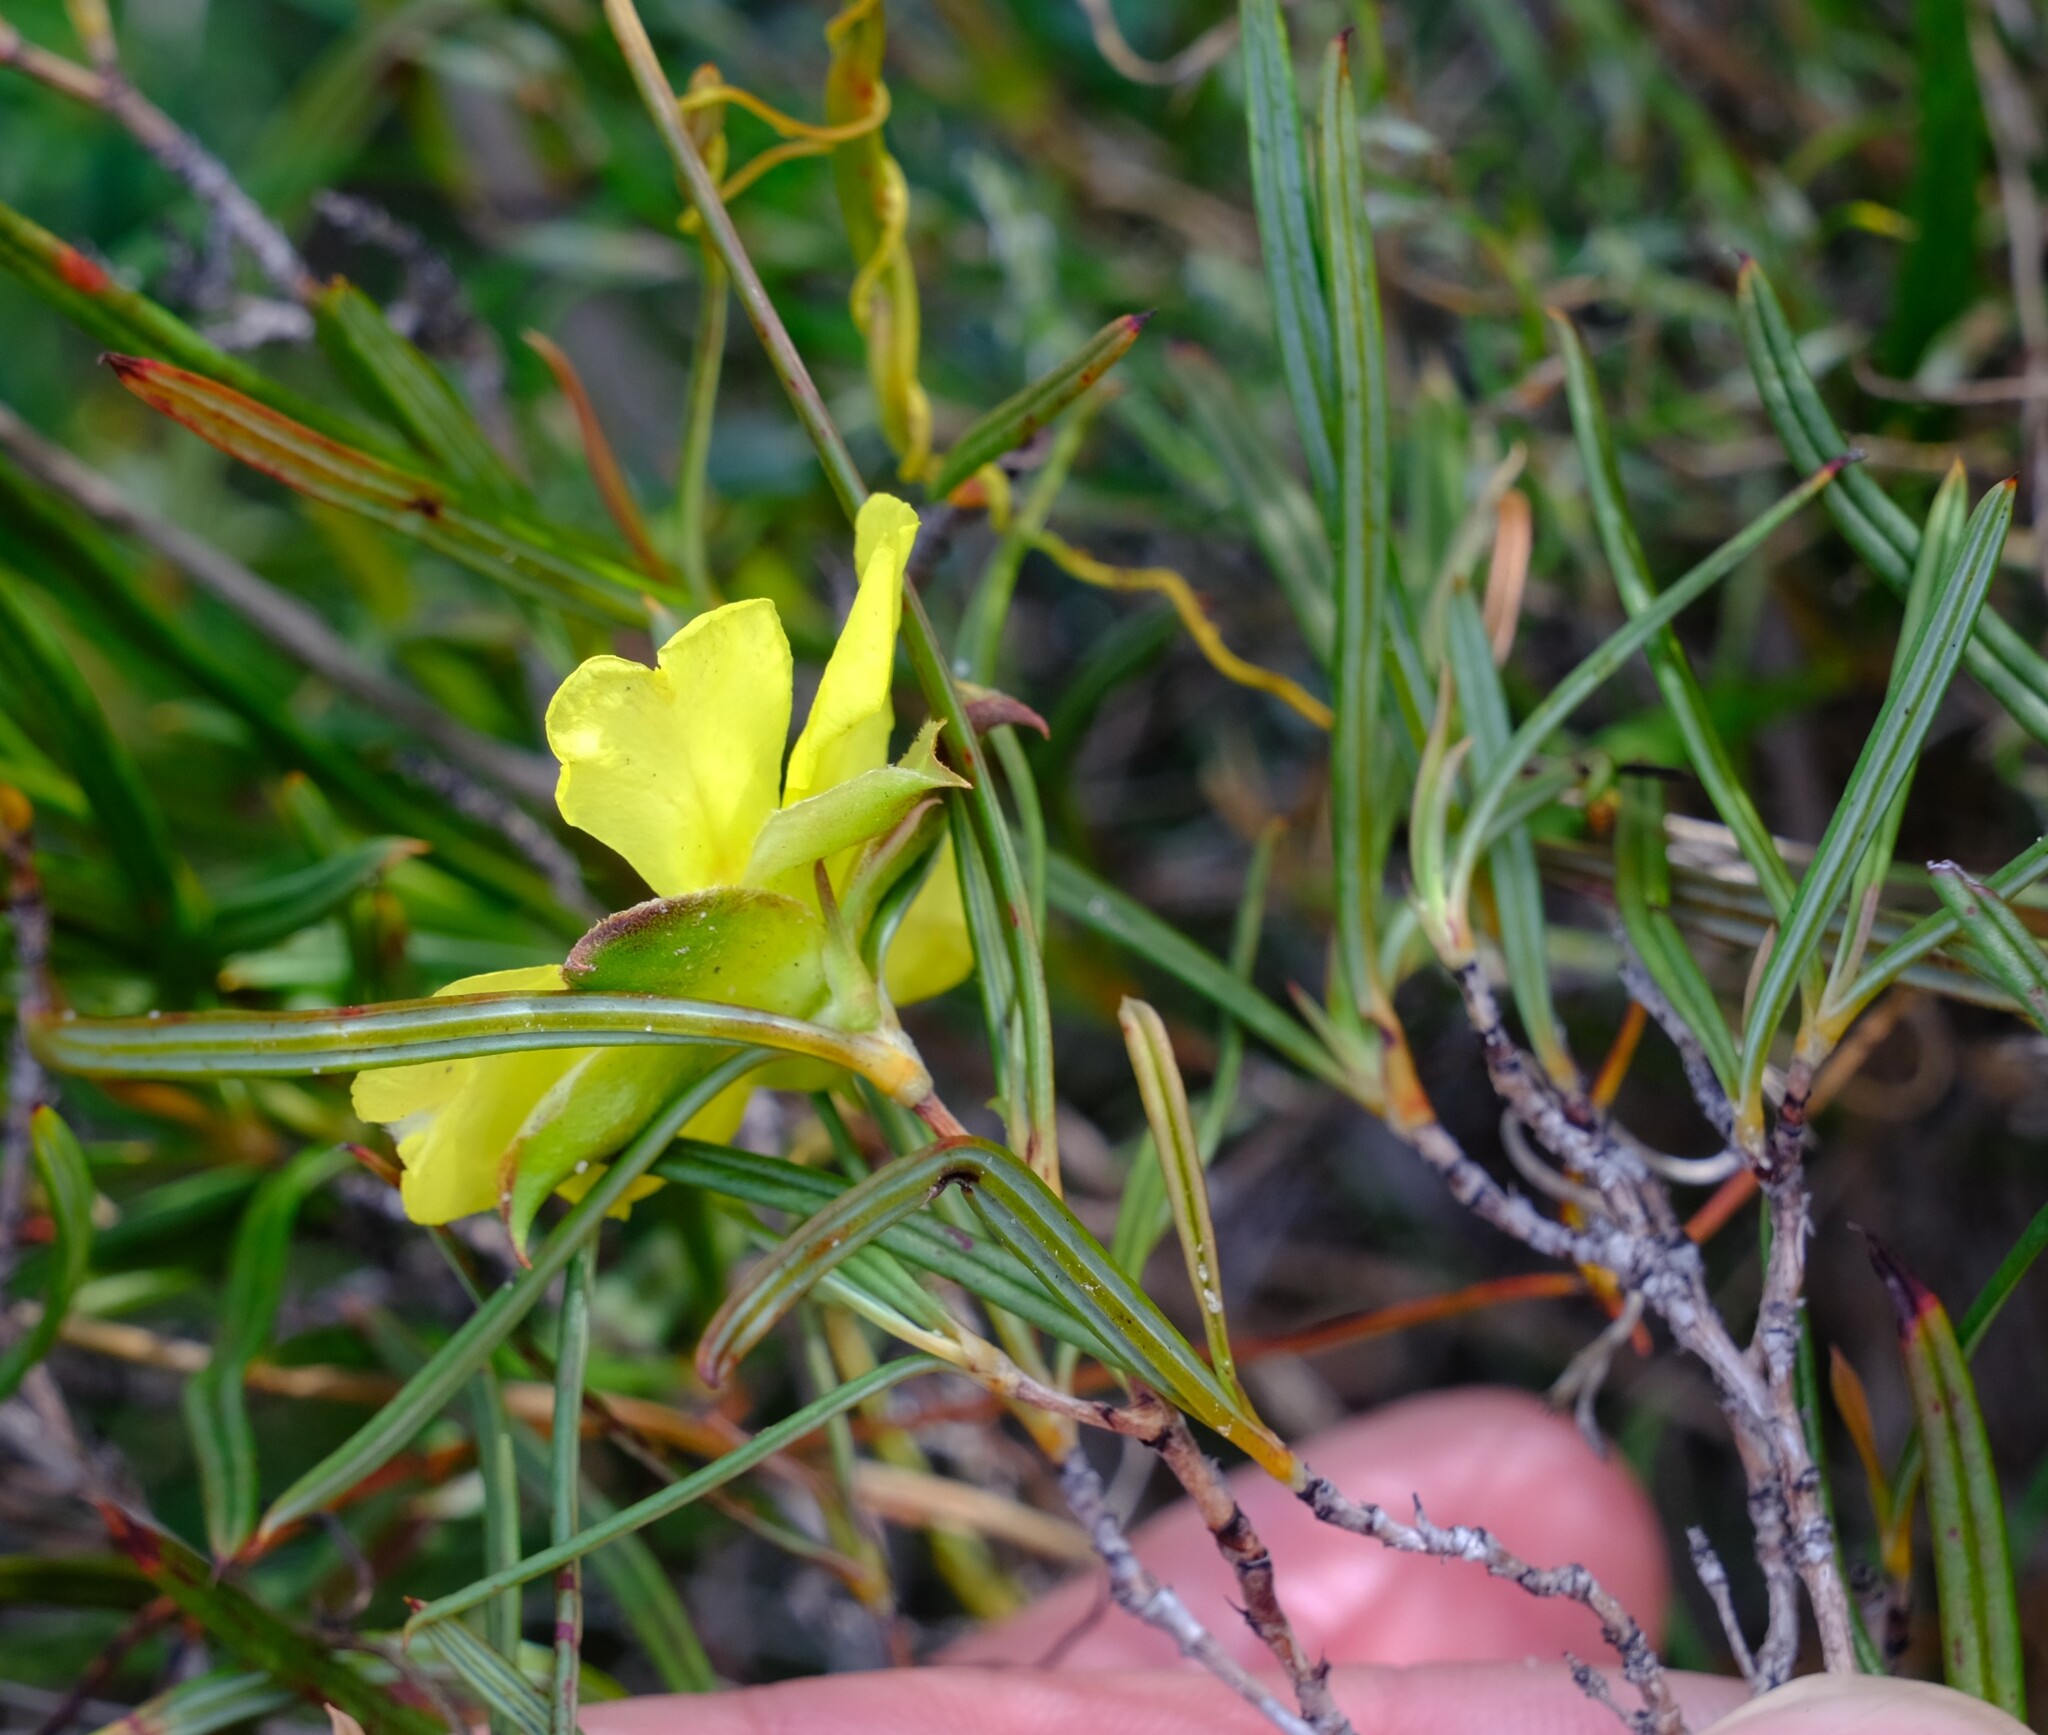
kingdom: Plantae
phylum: Tracheophyta
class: Magnoliopsida
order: Dilleniales
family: Dilleniaceae
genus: Hibbertia
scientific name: Hibbertia striata
